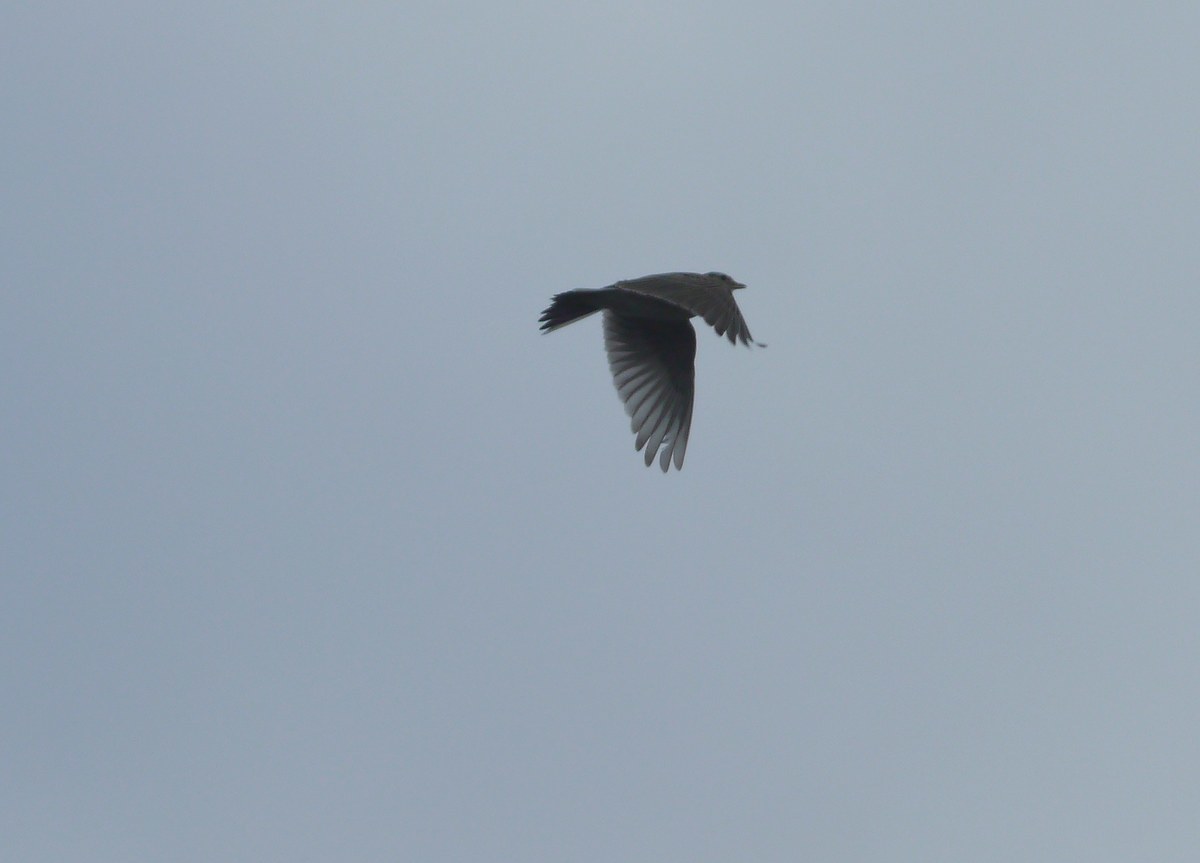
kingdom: Animalia
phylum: Chordata
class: Aves
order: Passeriformes
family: Alaudidae
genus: Alauda
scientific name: Alauda arvensis
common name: Eurasian skylark
